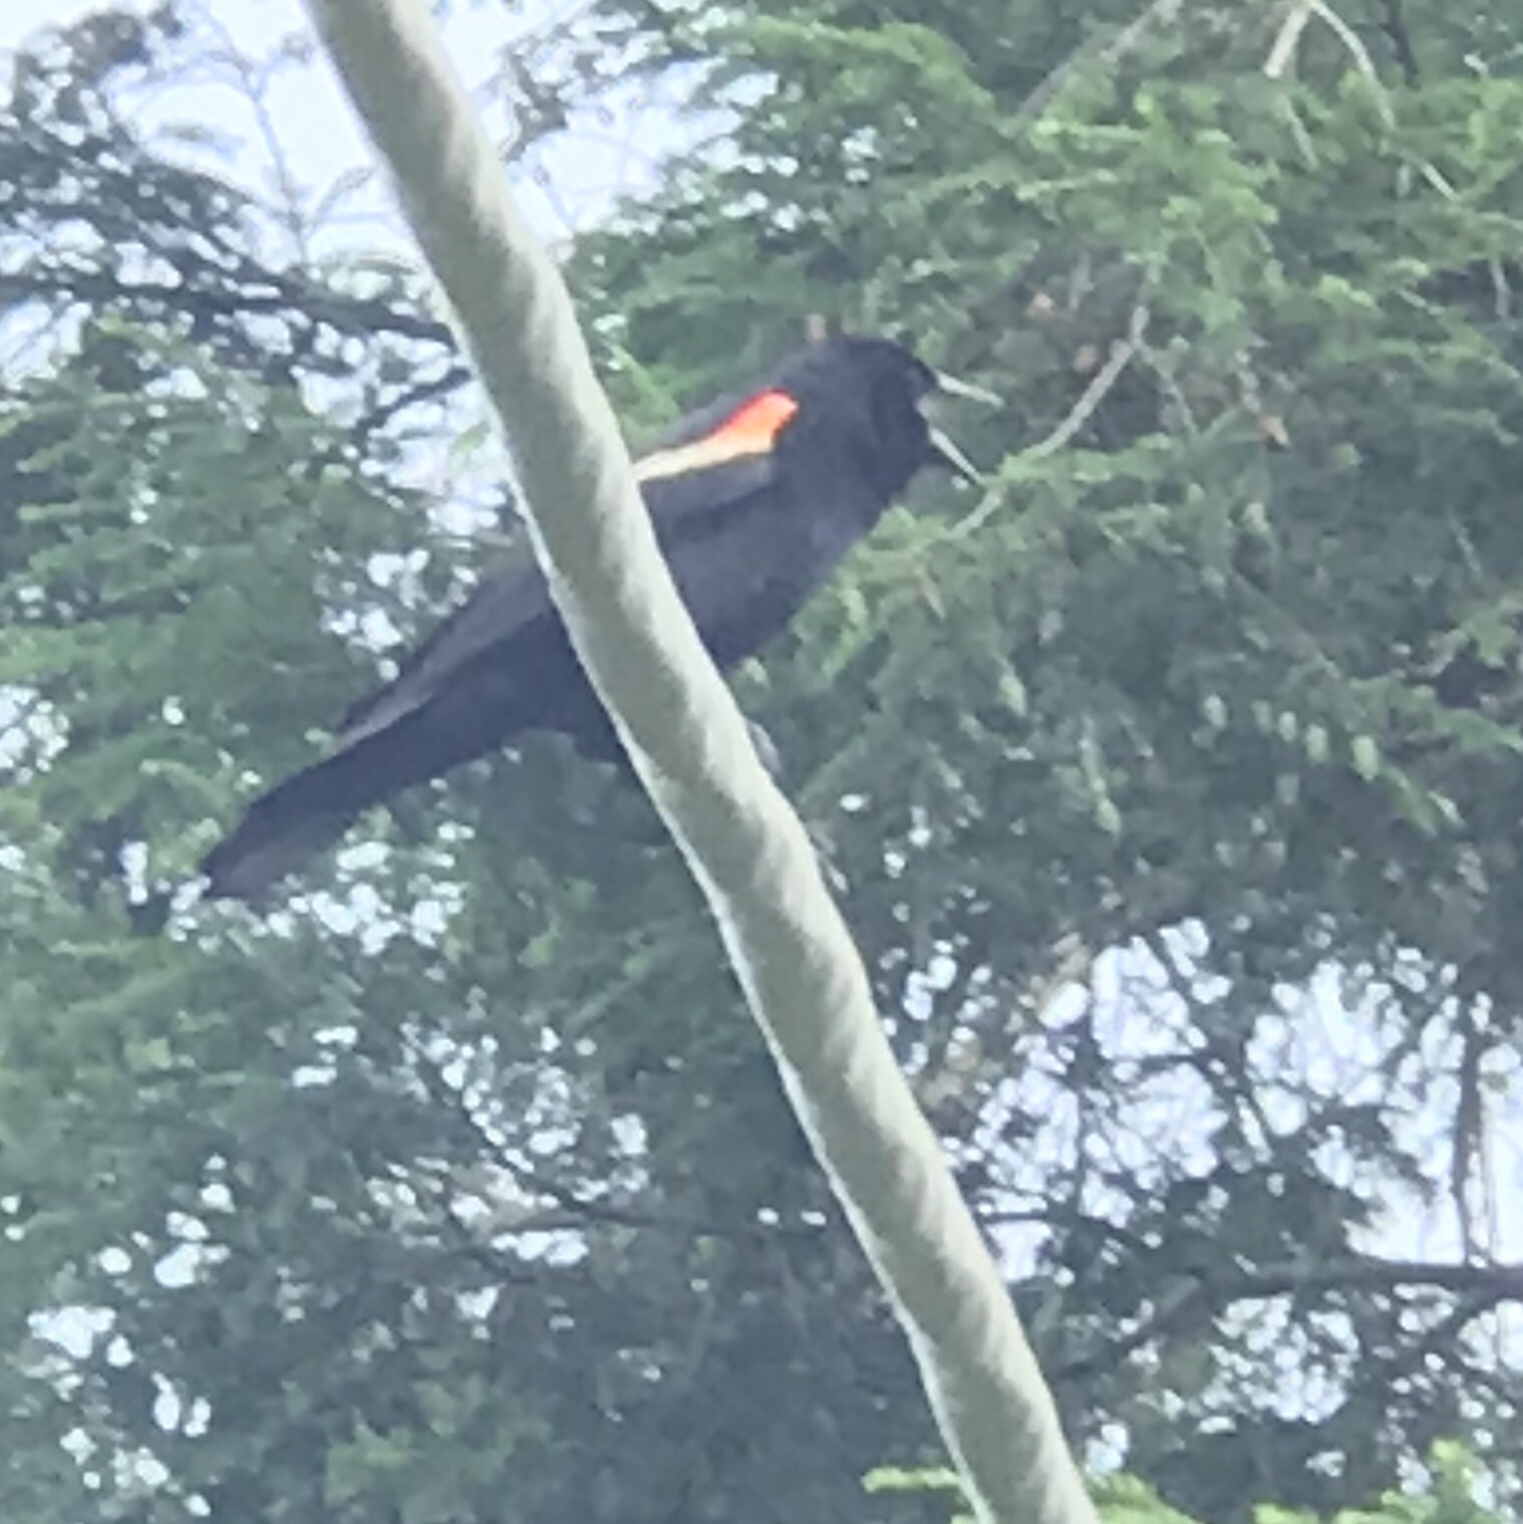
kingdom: Animalia
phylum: Chordata
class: Aves
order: Passeriformes
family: Icteridae
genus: Agelaius
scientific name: Agelaius phoeniceus
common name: Red-winged blackbird
